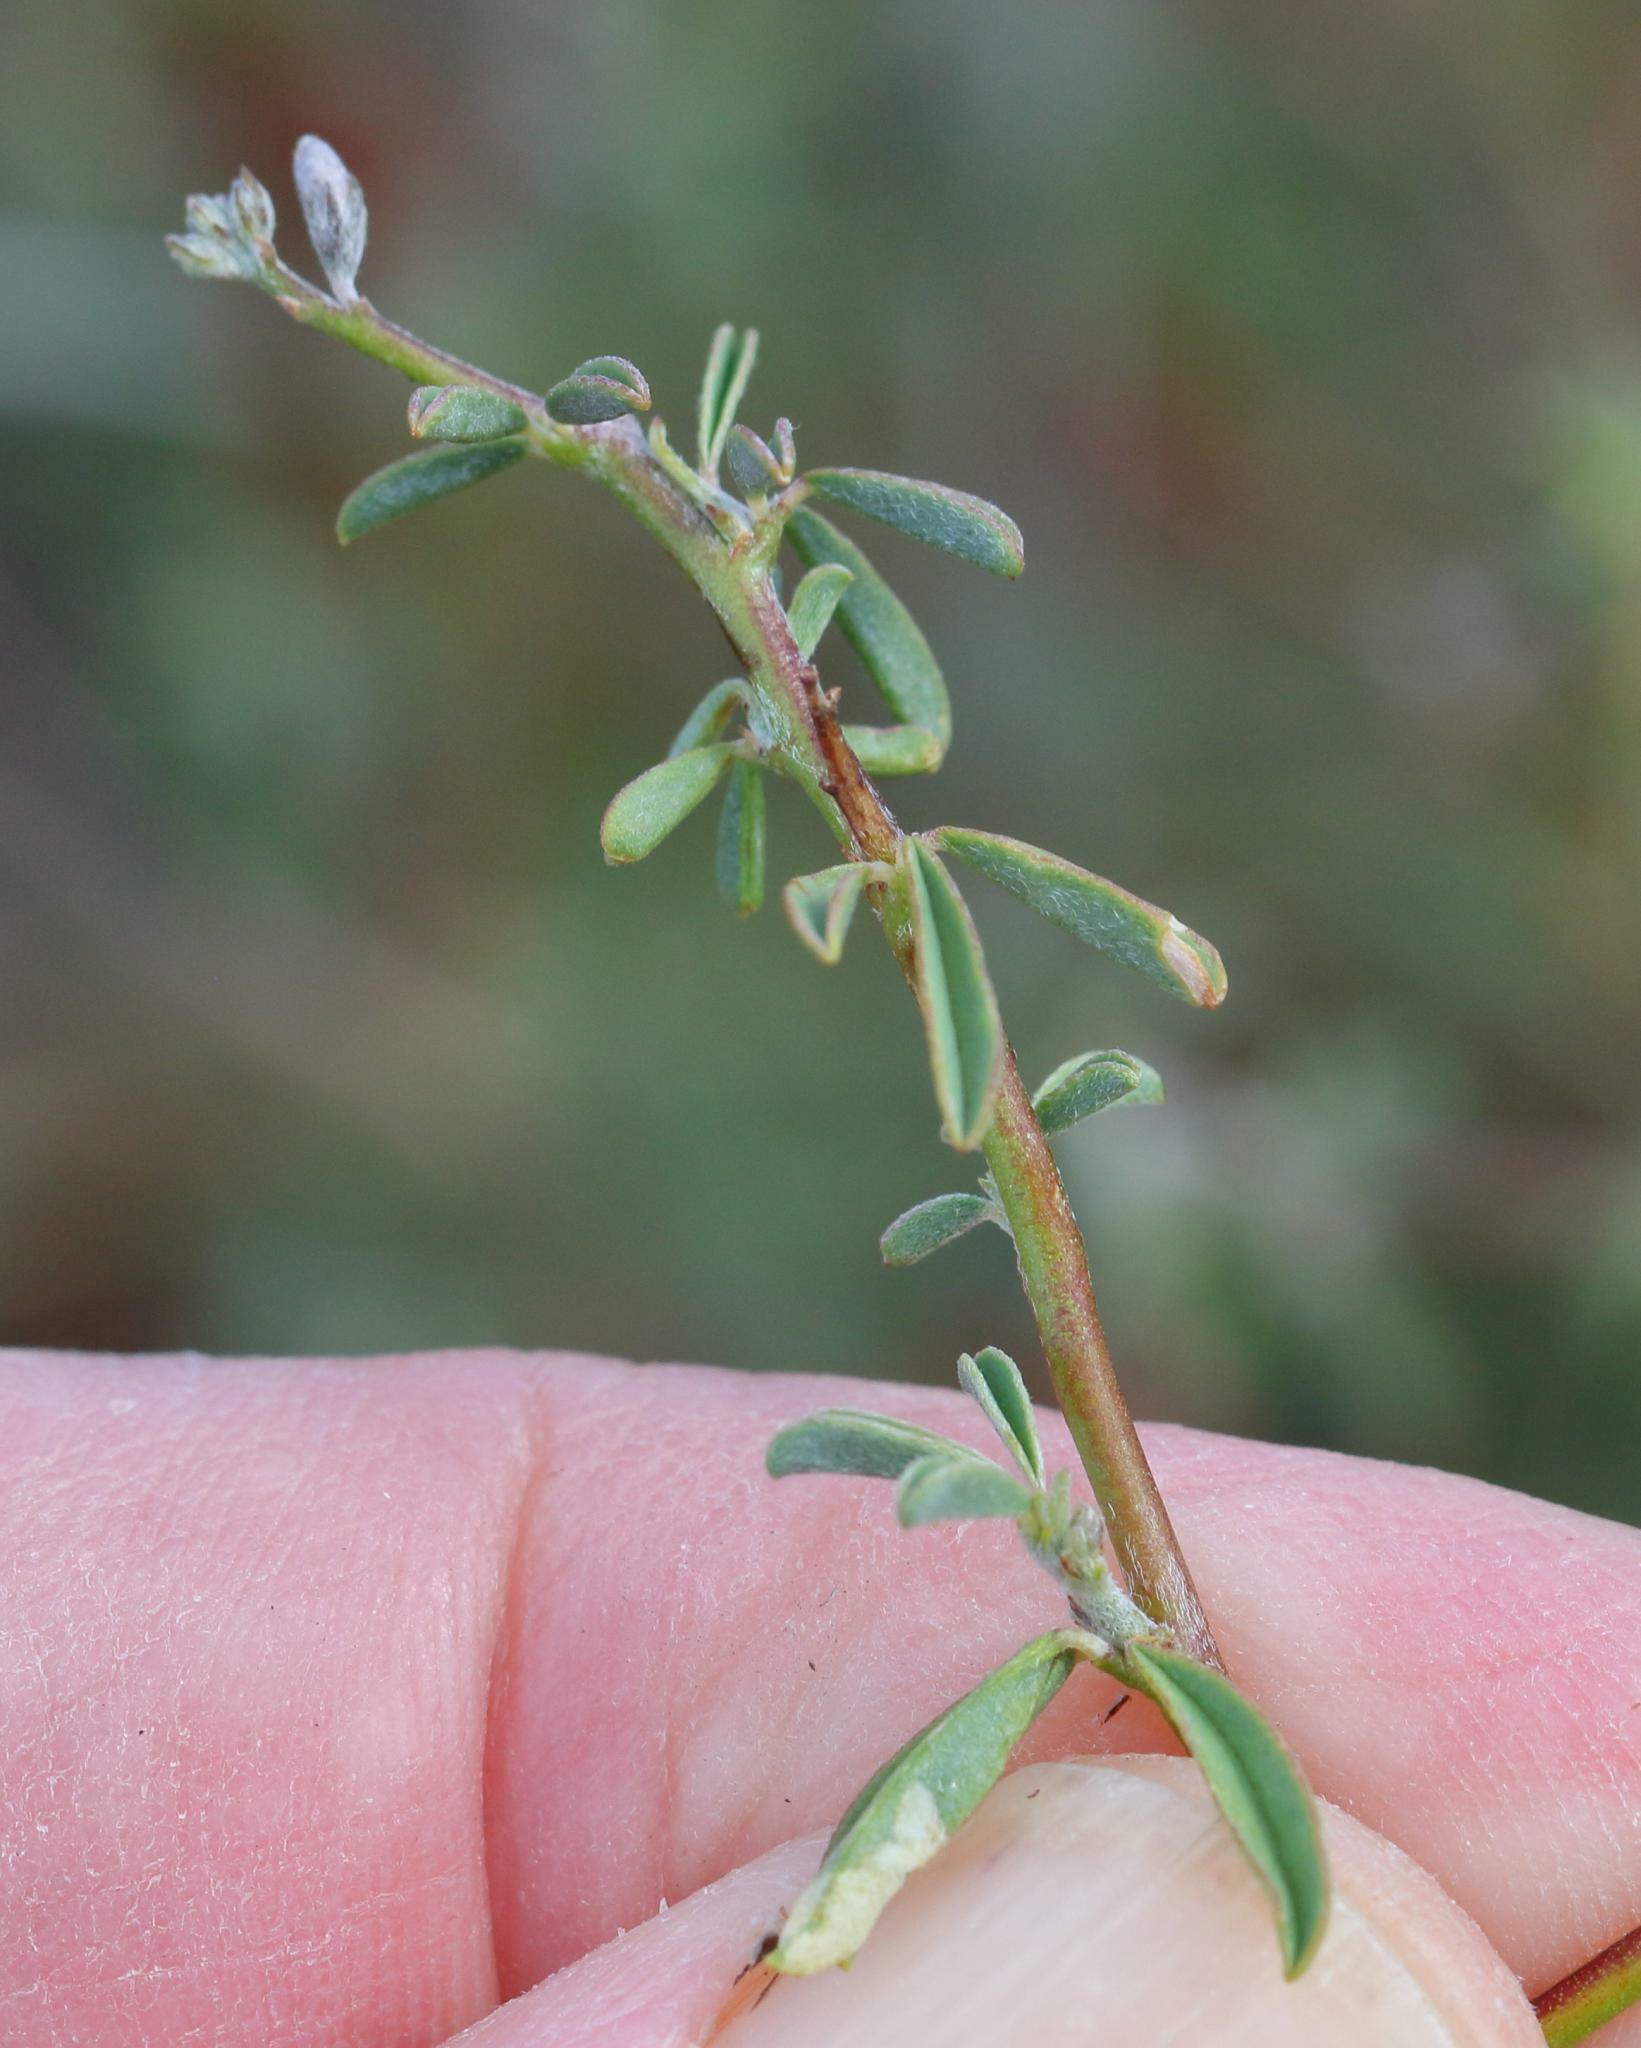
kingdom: Plantae
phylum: Tracheophyta
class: Magnoliopsida
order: Fabales
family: Fabaceae
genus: Indigofera
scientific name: Indigofera sessilifolia
